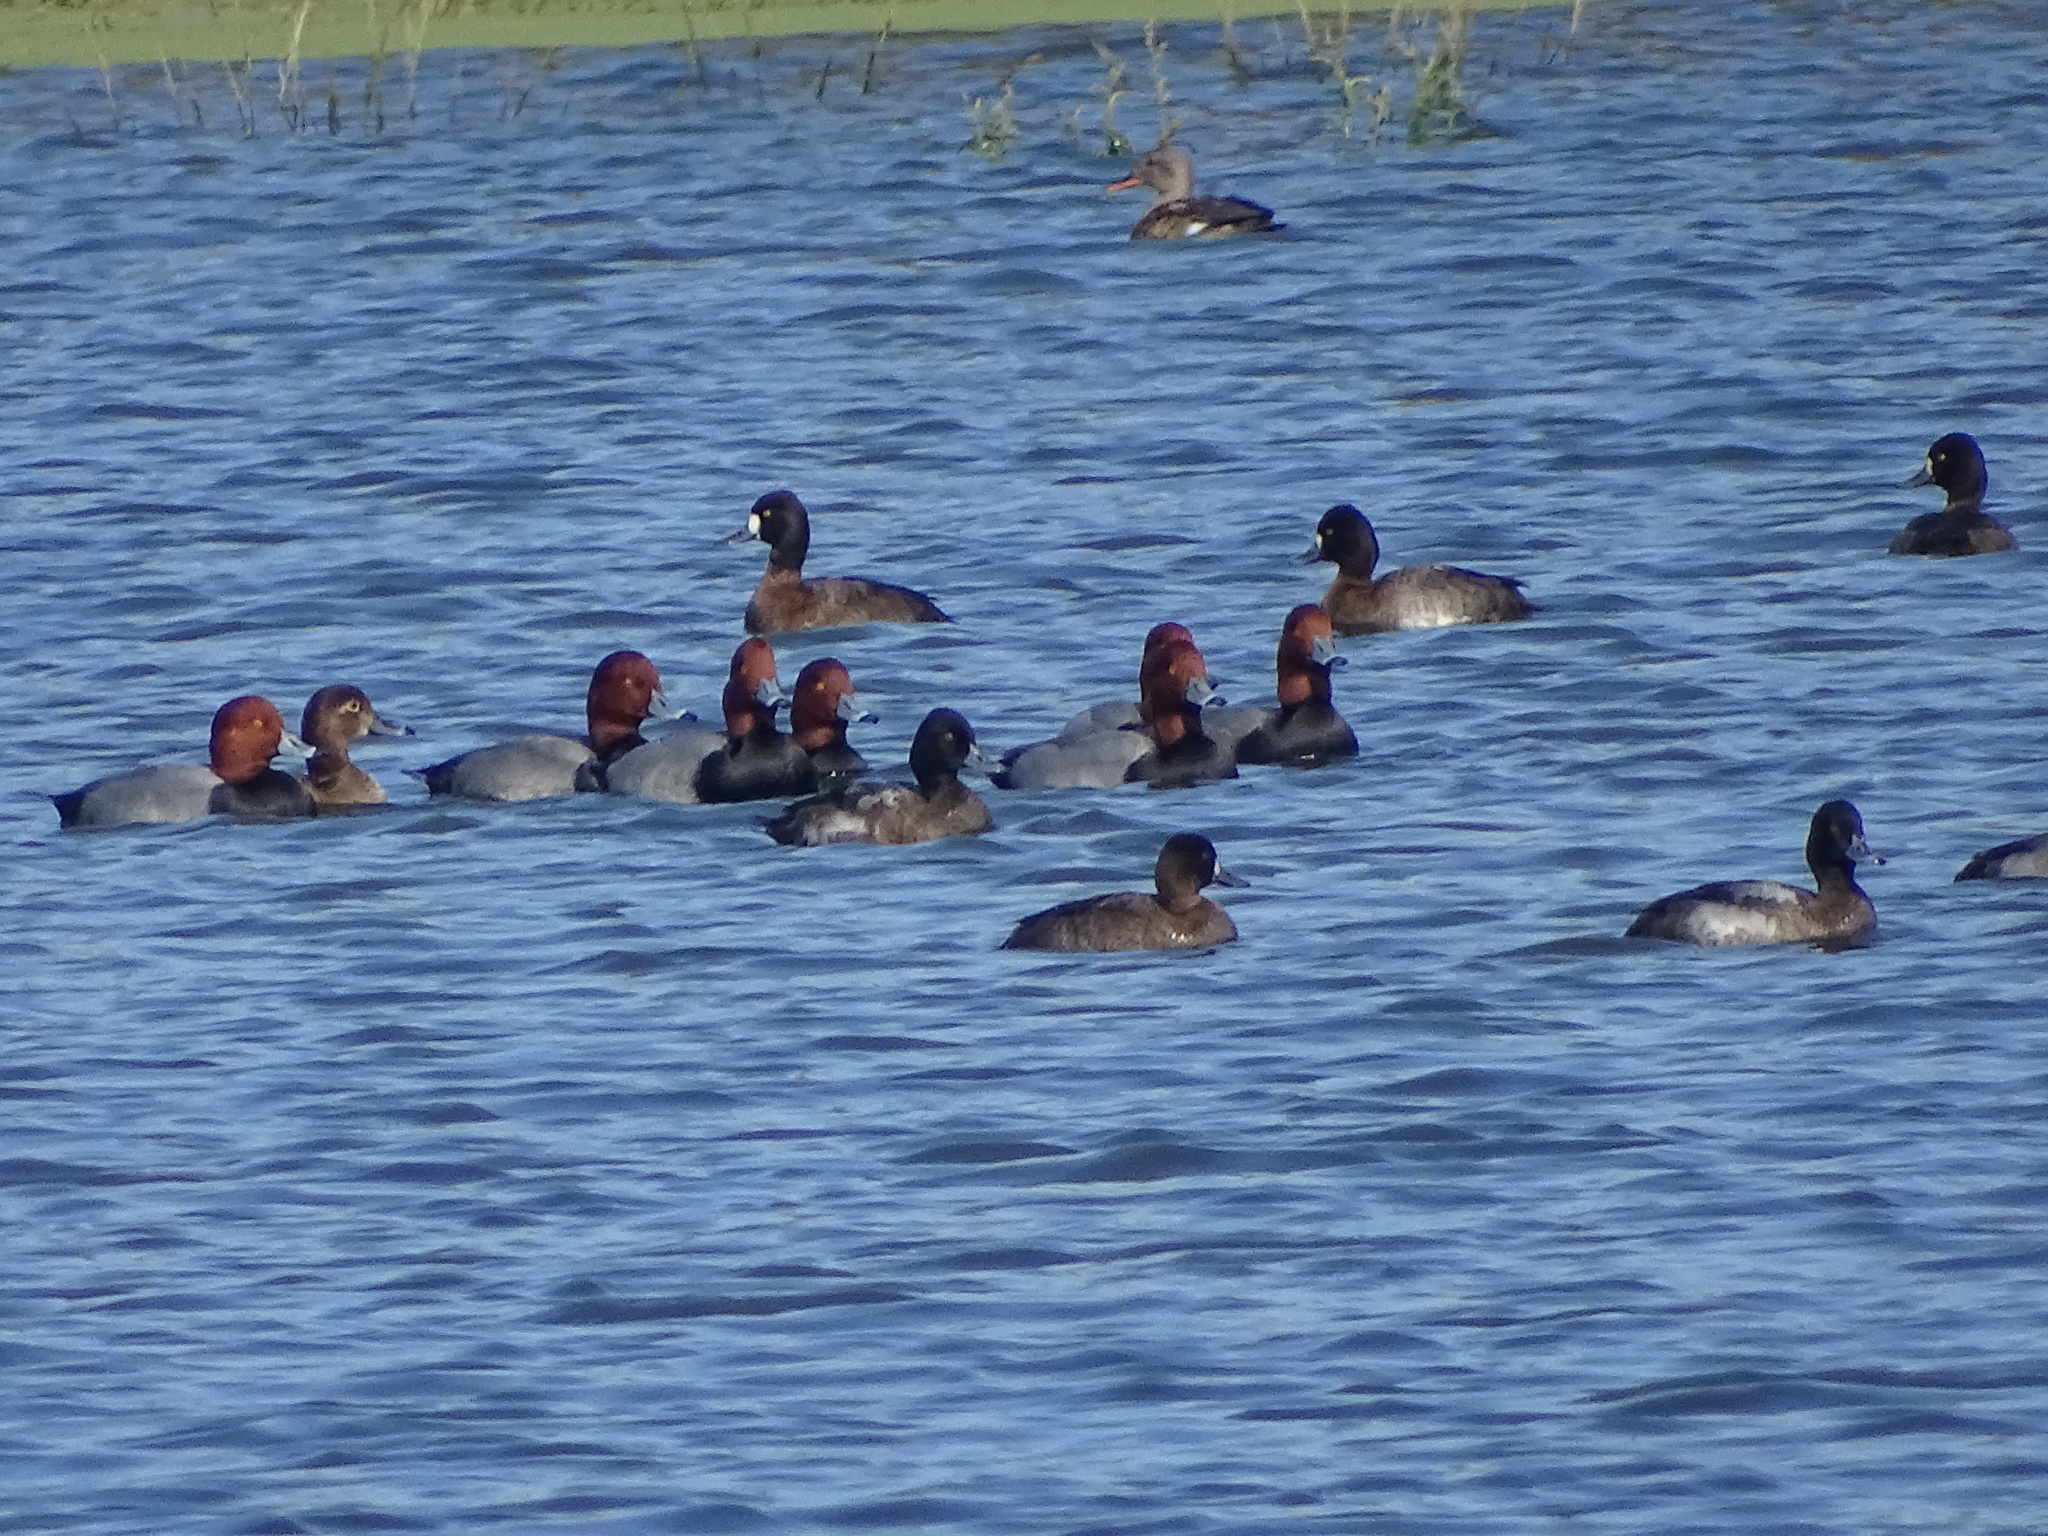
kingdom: Animalia
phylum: Chordata
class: Aves
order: Anseriformes
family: Anatidae
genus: Aythya
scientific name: Aythya americana
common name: Redhead
